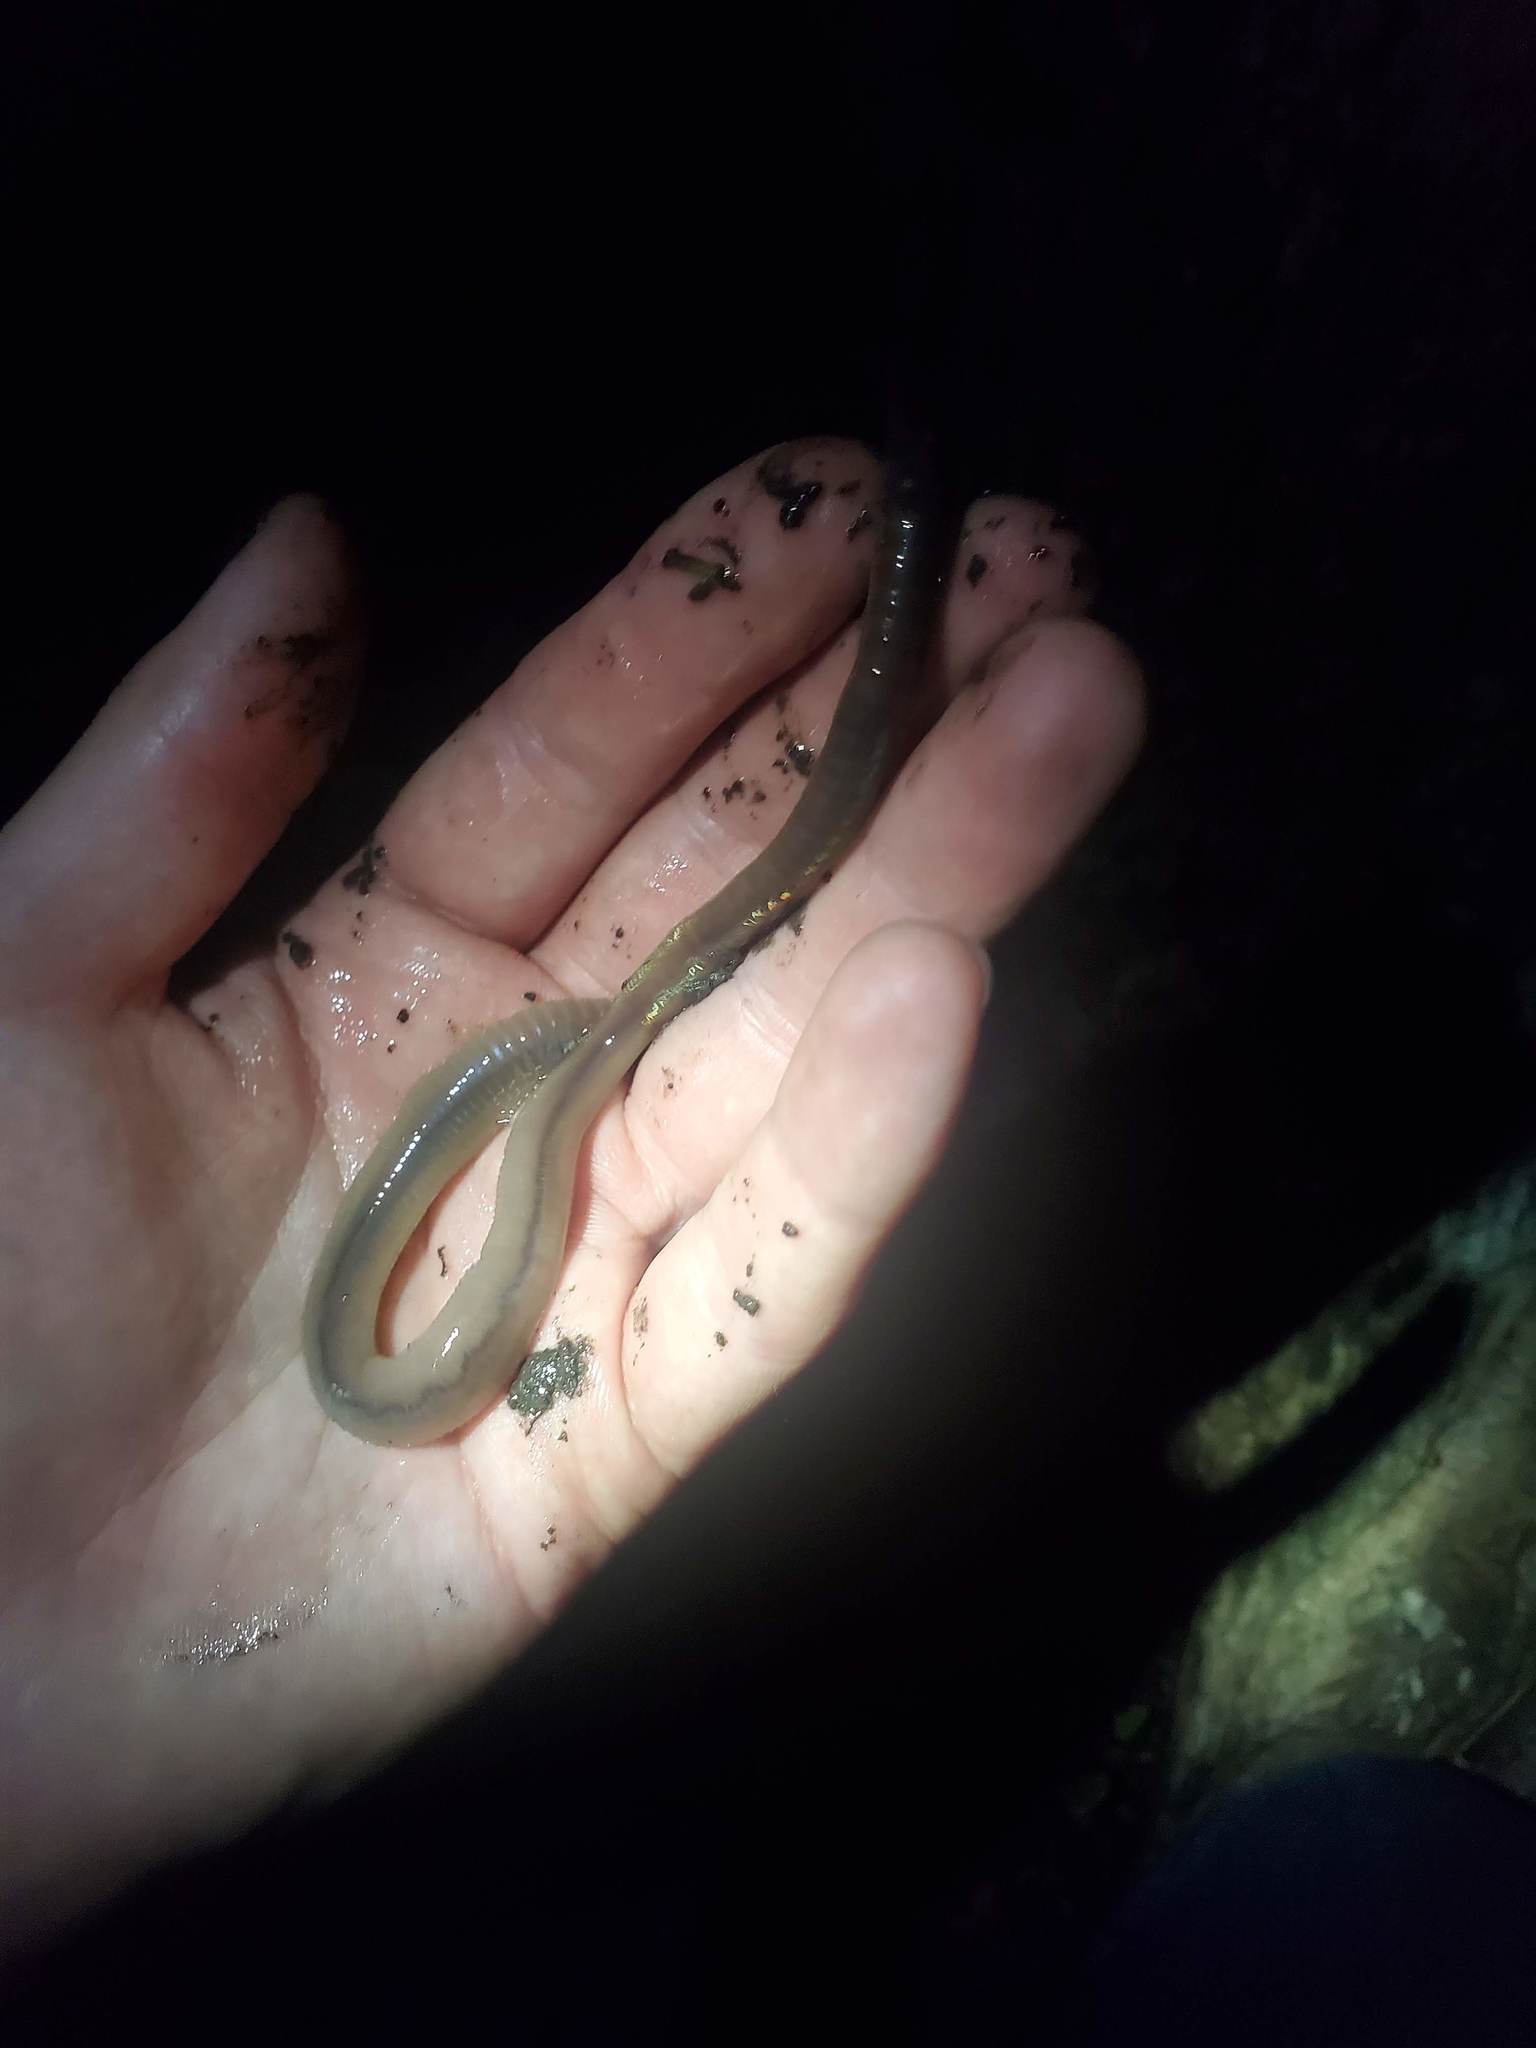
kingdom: Animalia
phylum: Annelida
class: Clitellata
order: Crassiclitellata
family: Lumbricidae
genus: Lumbricus
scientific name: Lumbricus terrestris
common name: Common earthworm
